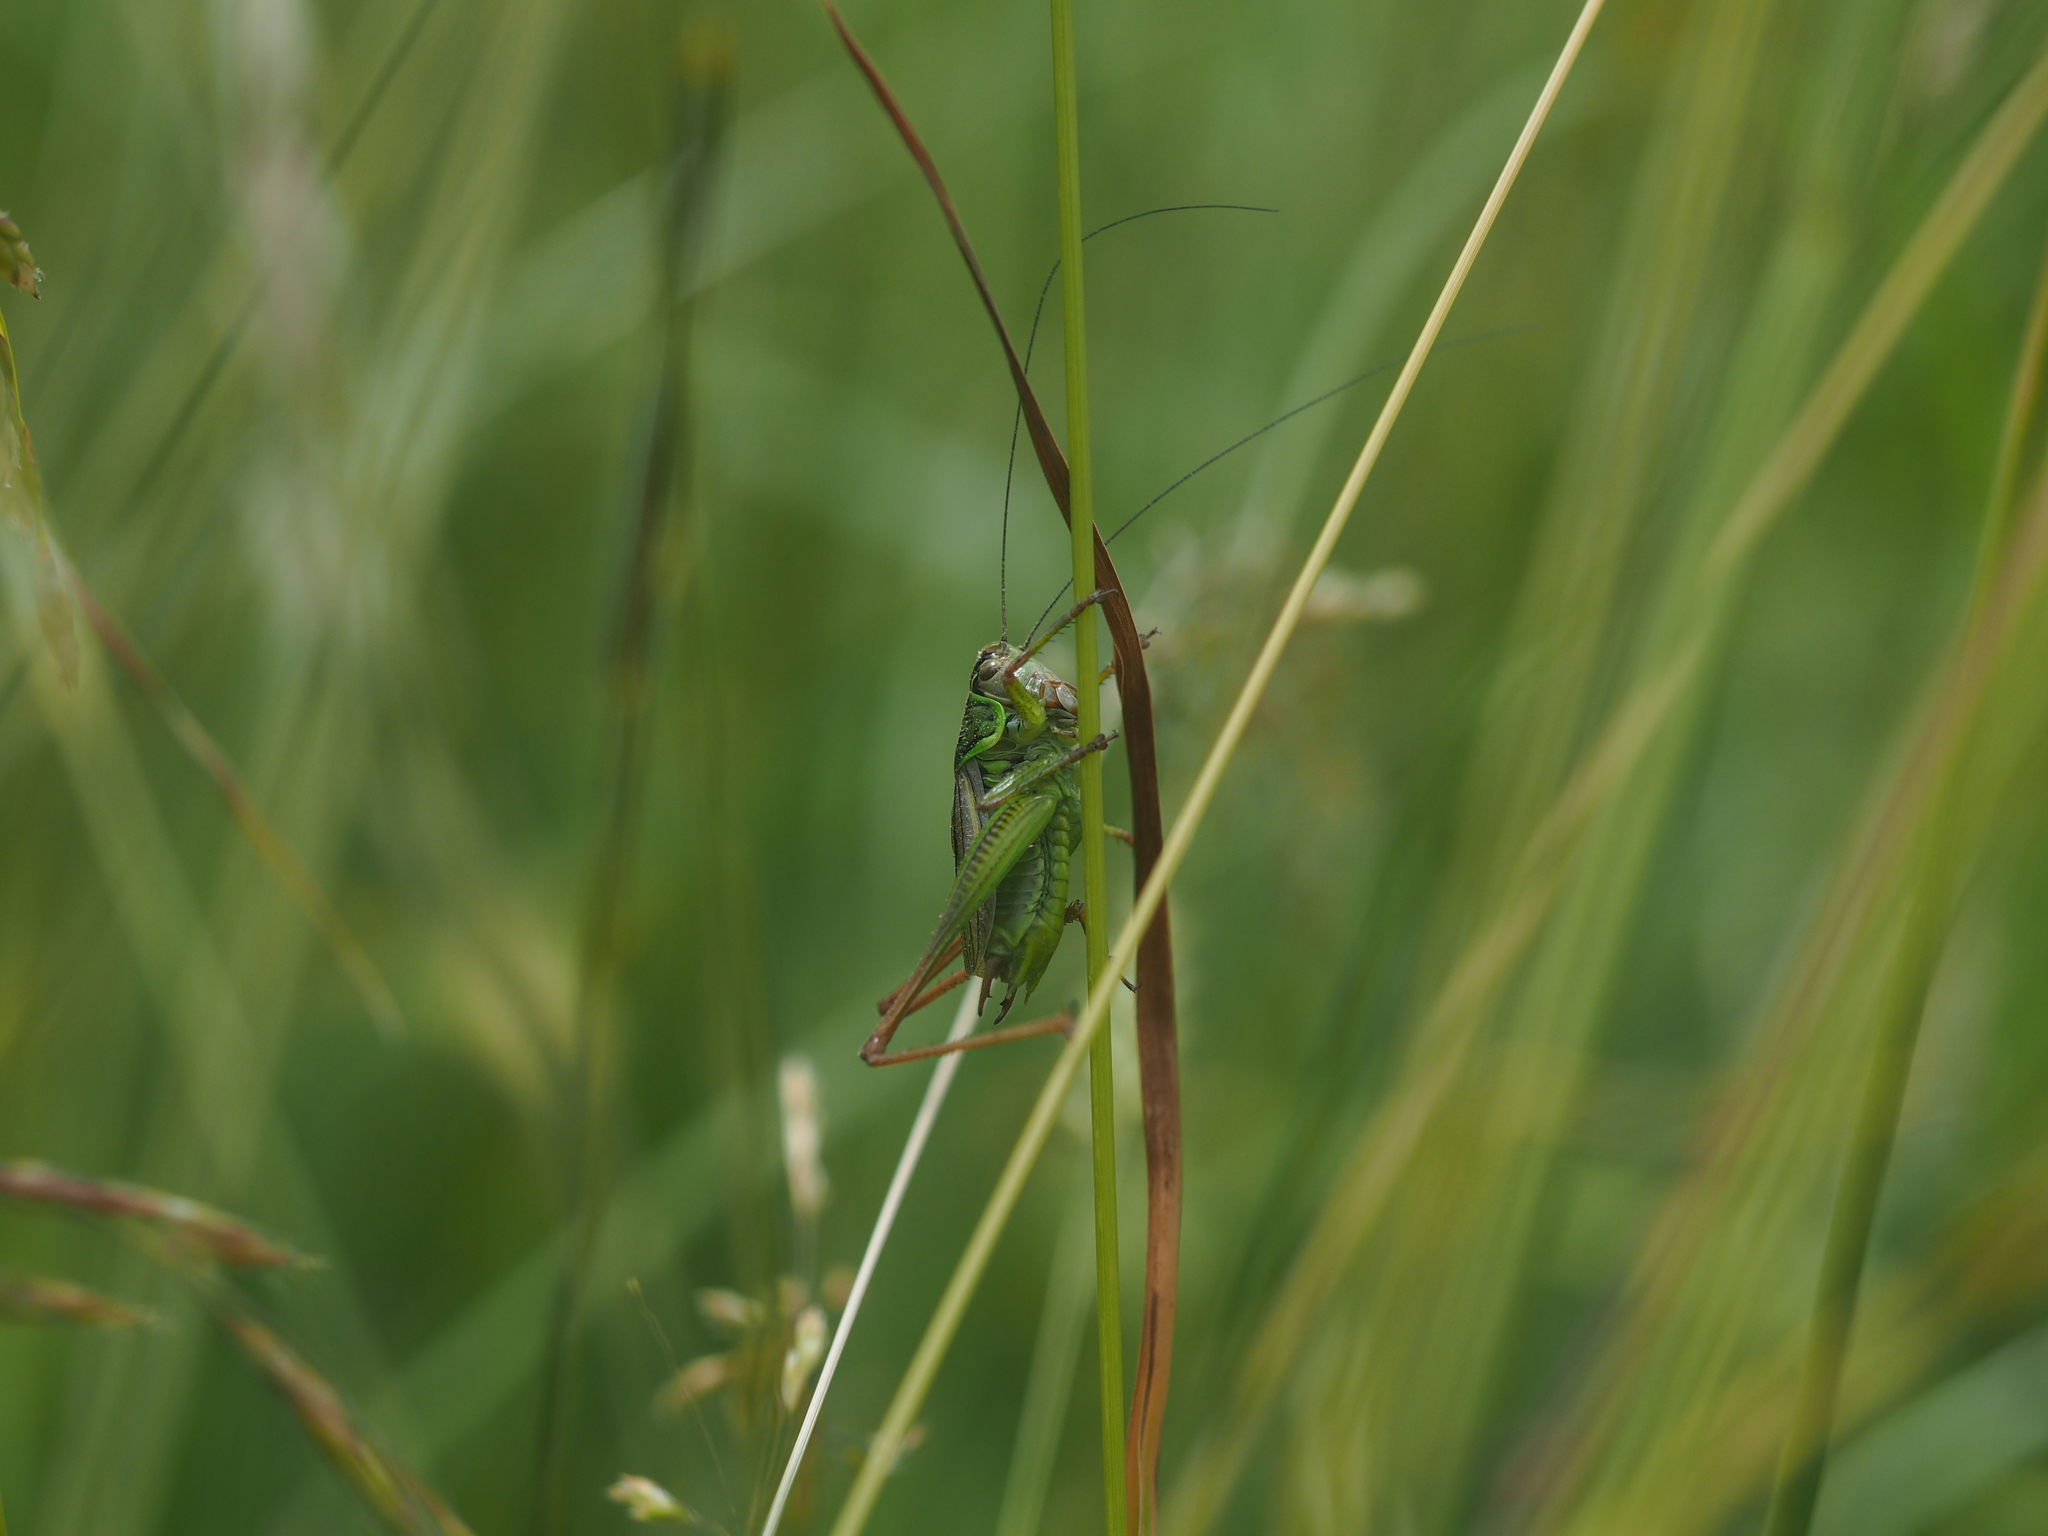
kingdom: Animalia
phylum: Arthropoda
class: Insecta
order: Orthoptera
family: Tettigoniidae
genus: Roeseliana
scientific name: Roeseliana roeselii
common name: Roesel's bush cricket
